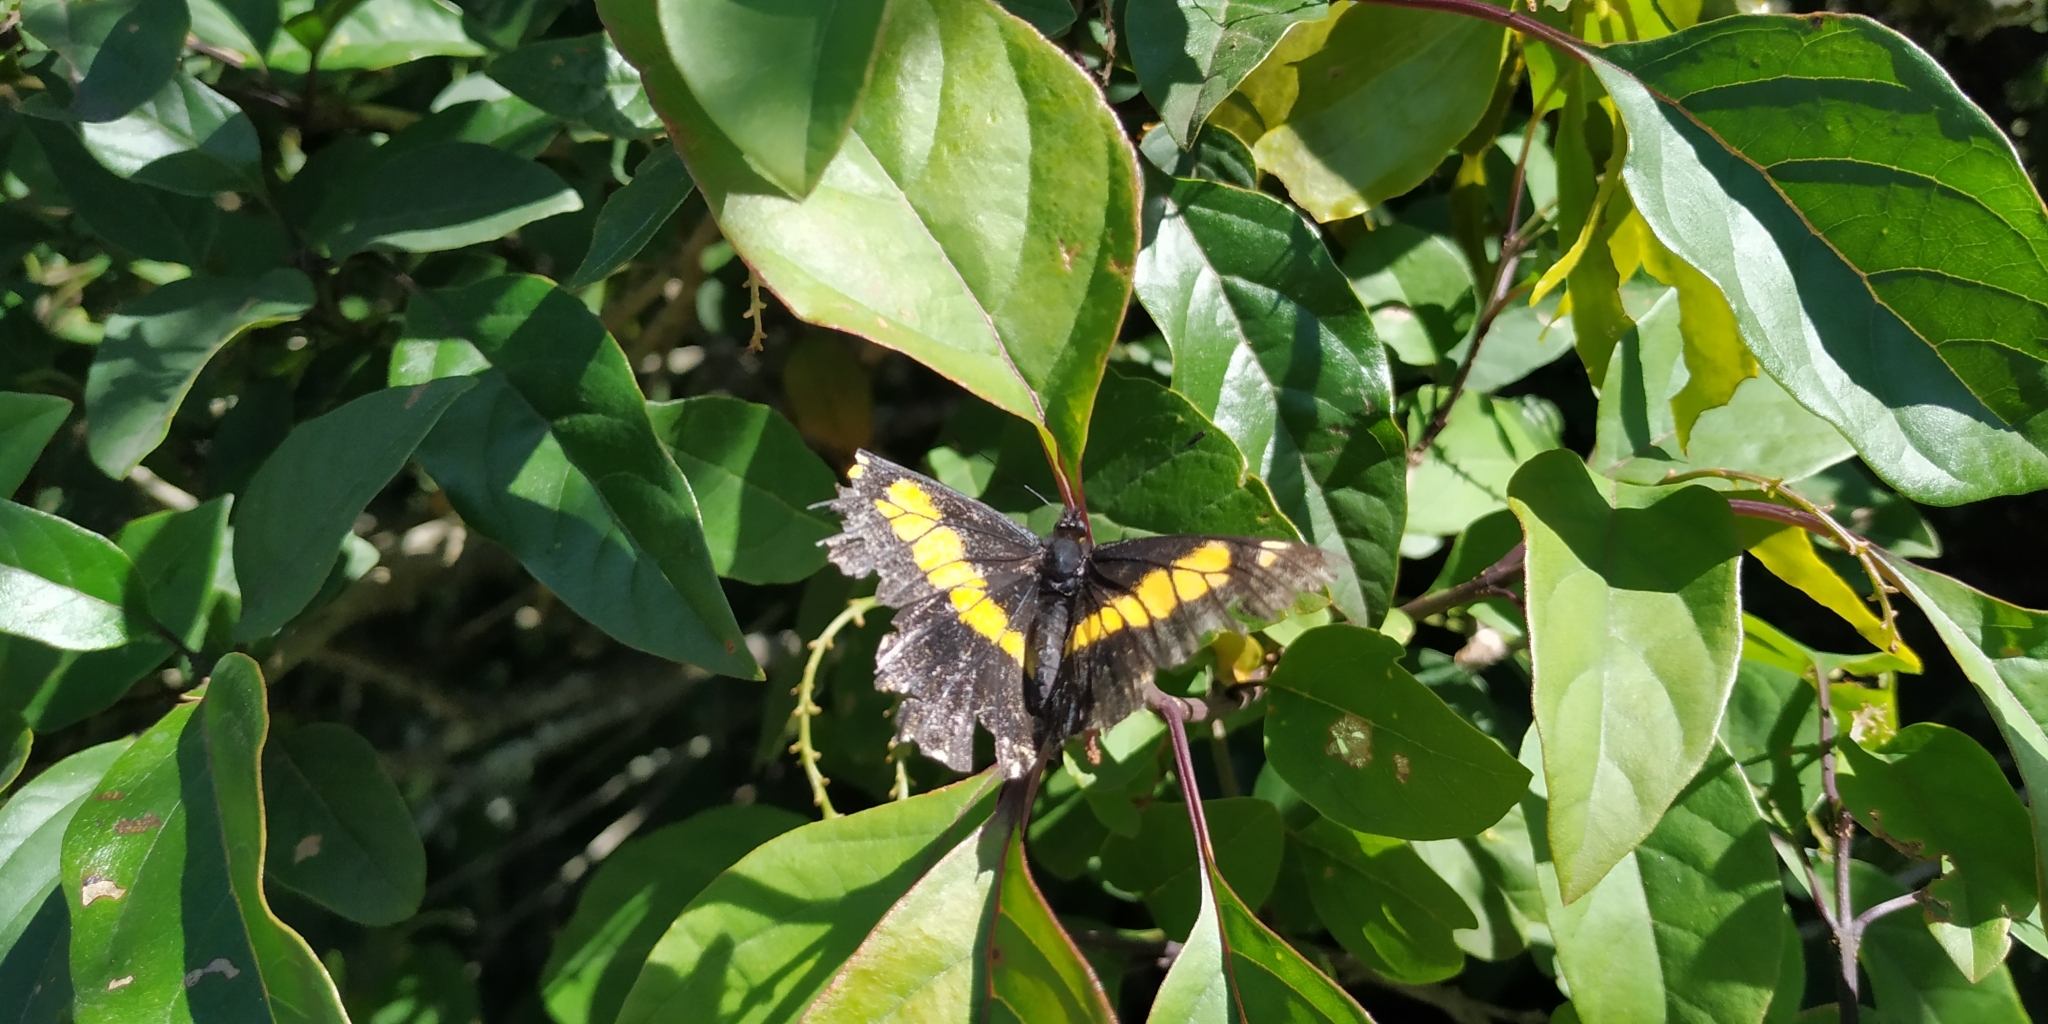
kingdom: Animalia
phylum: Arthropoda
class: Insecta
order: Lepidoptera
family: Pieridae
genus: Archonias
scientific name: Archonias teutila
